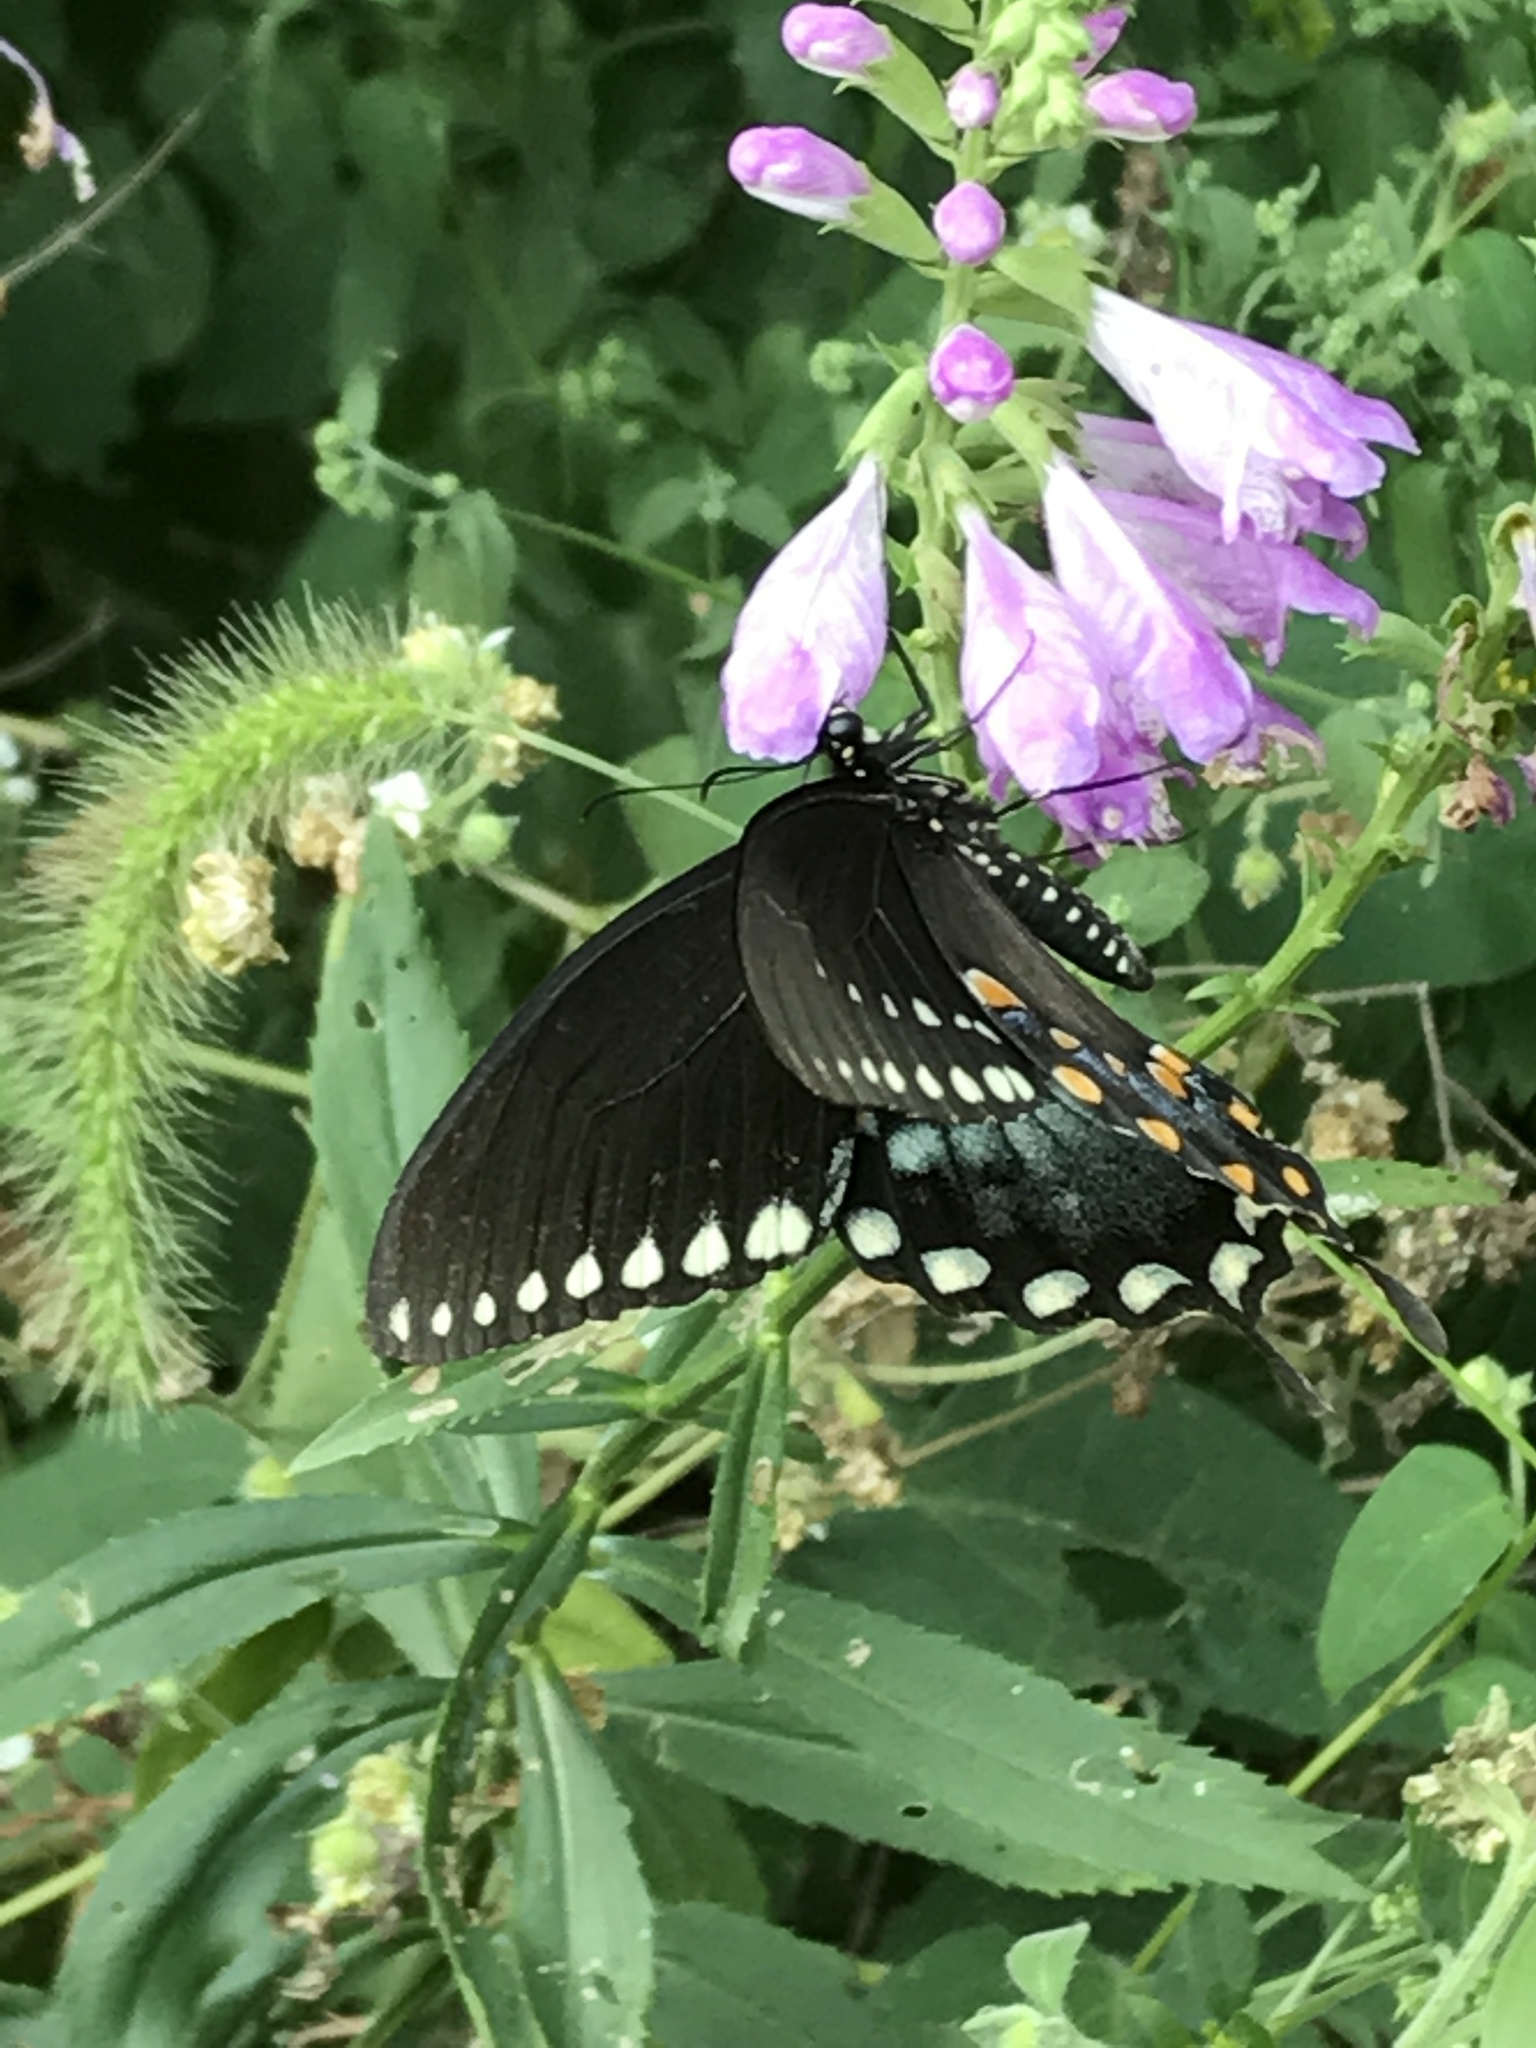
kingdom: Animalia
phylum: Arthropoda
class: Insecta
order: Lepidoptera
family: Papilionidae
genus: Papilio
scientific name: Papilio troilus
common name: Spicebush swallowtail
